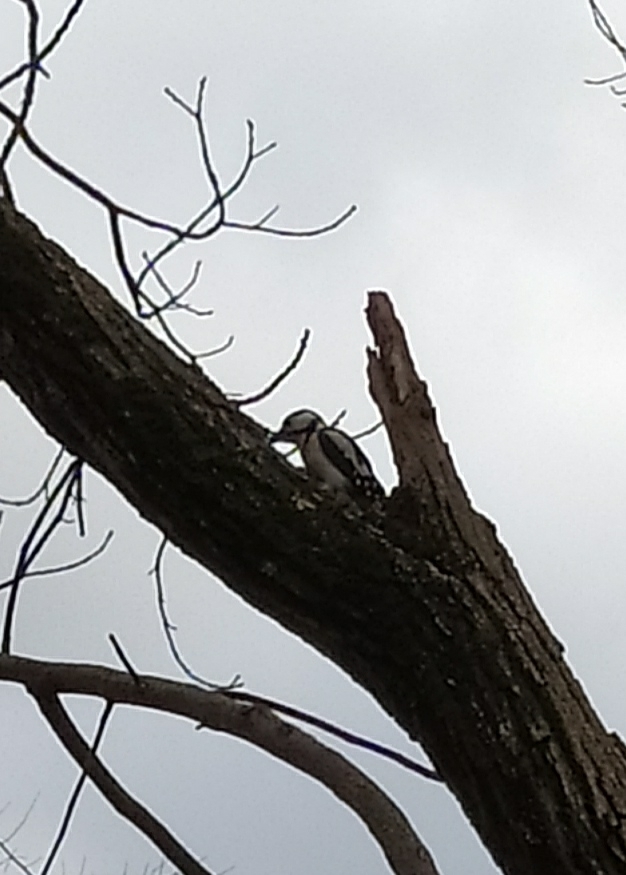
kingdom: Animalia
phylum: Chordata
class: Aves
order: Piciformes
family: Picidae
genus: Dendrocopos
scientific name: Dendrocopos major
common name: Great spotted woodpecker
